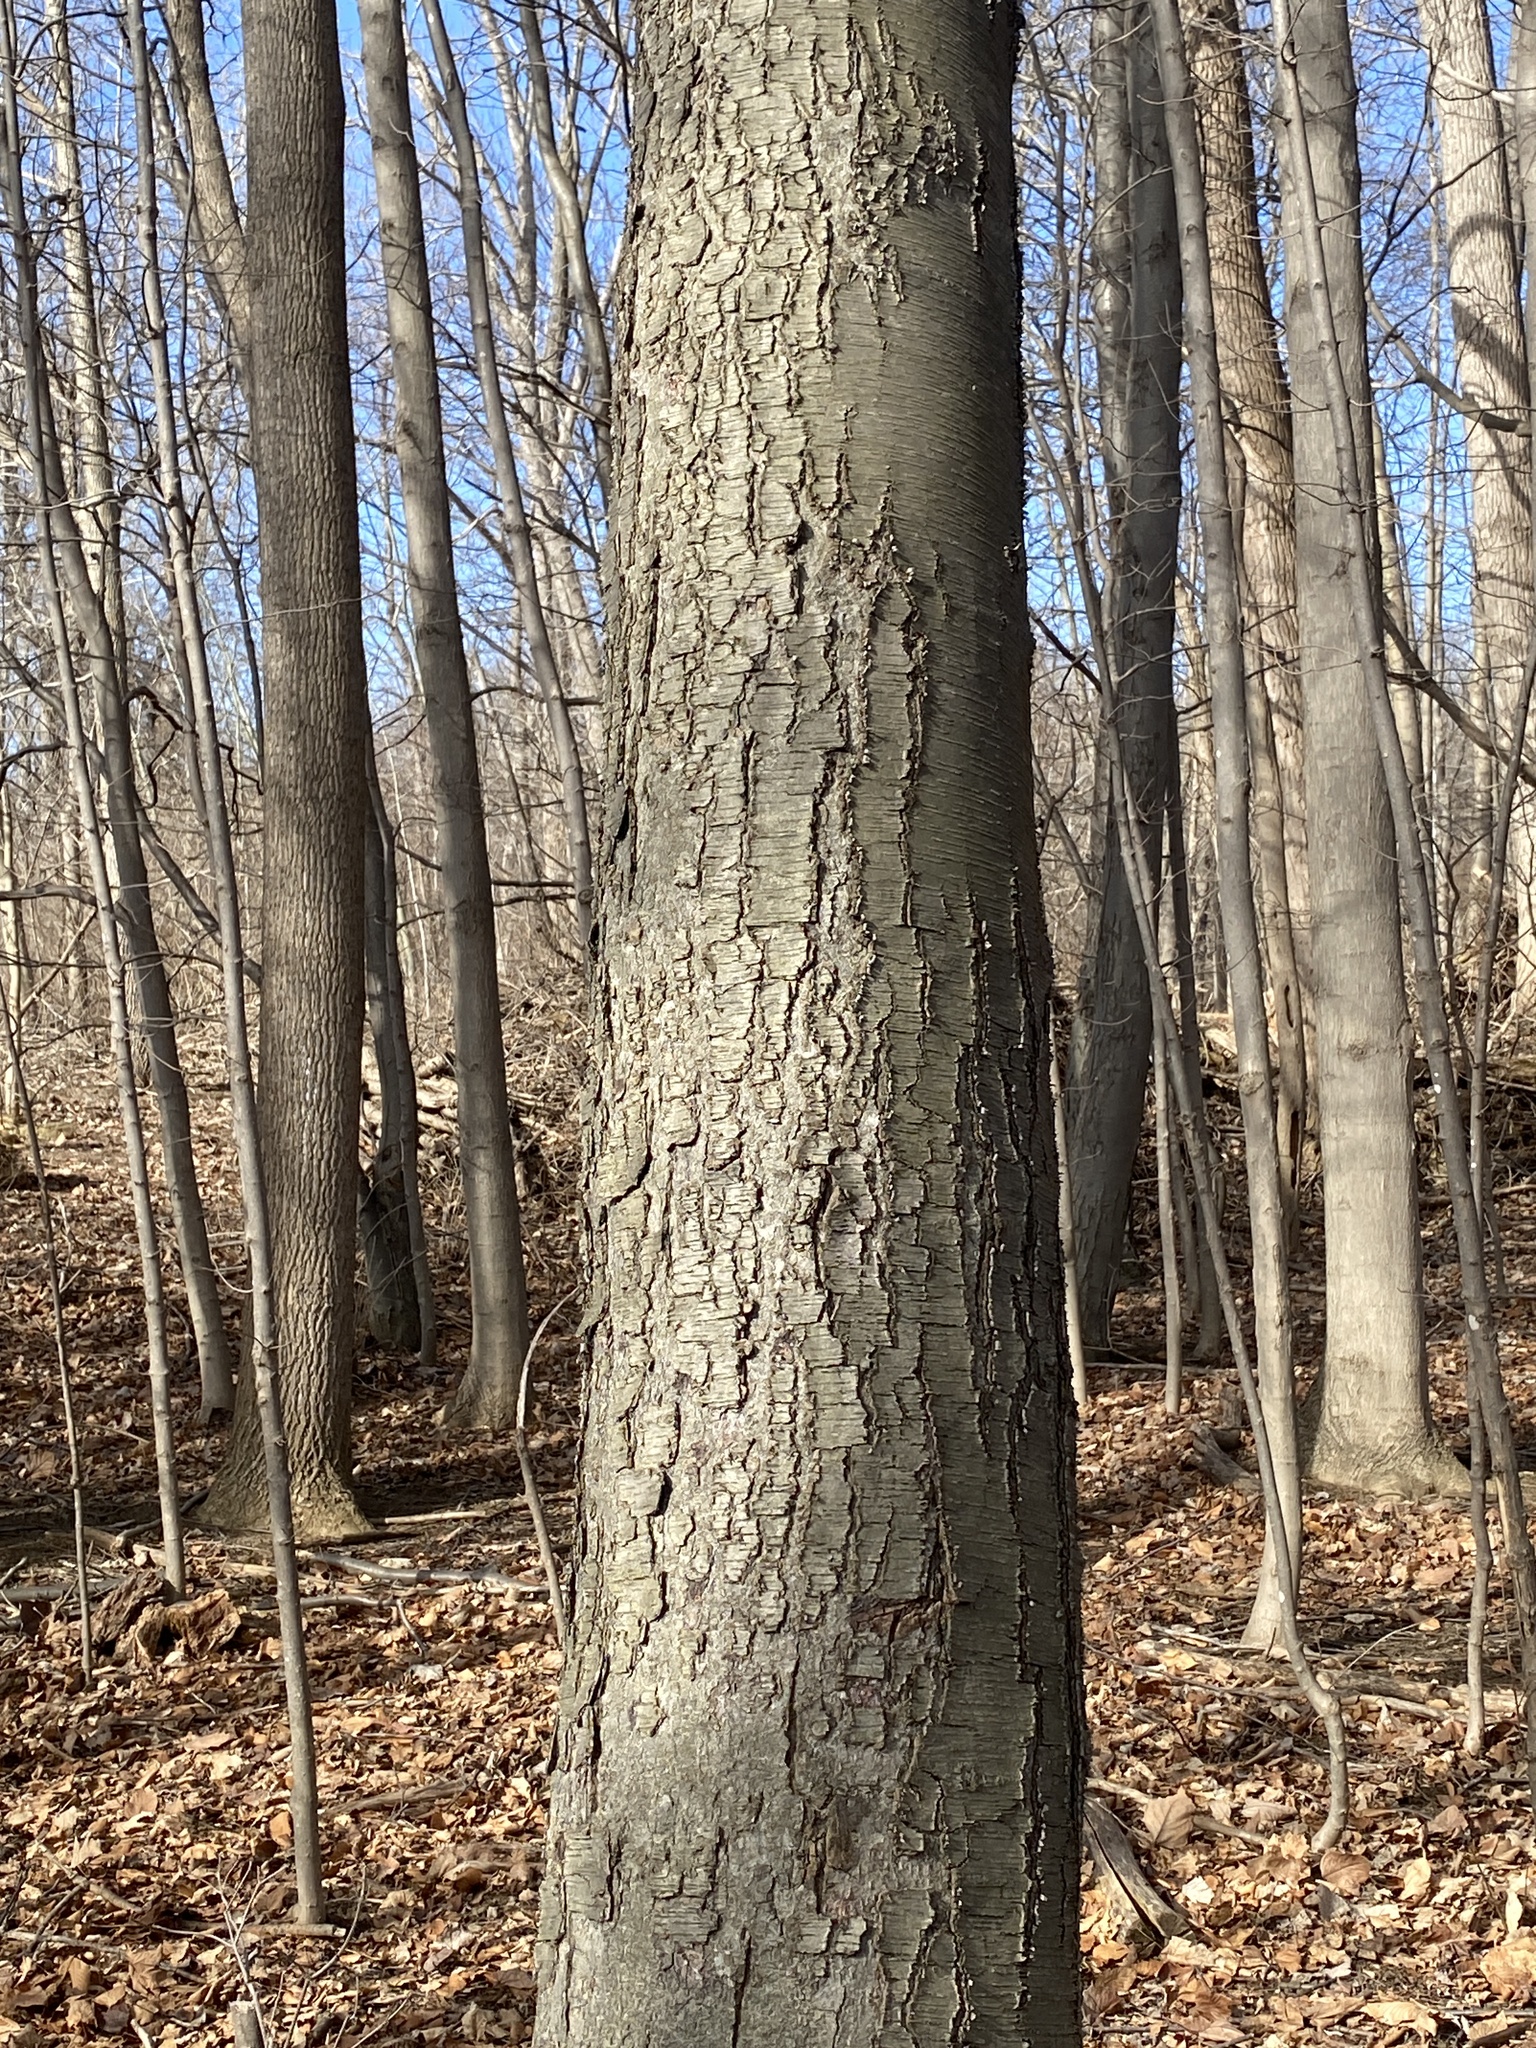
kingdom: Plantae
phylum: Tracheophyta
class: Magnoliopsida
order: Fagales
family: Betulaceae
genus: Betula
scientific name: Betula lenta
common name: Black birch
